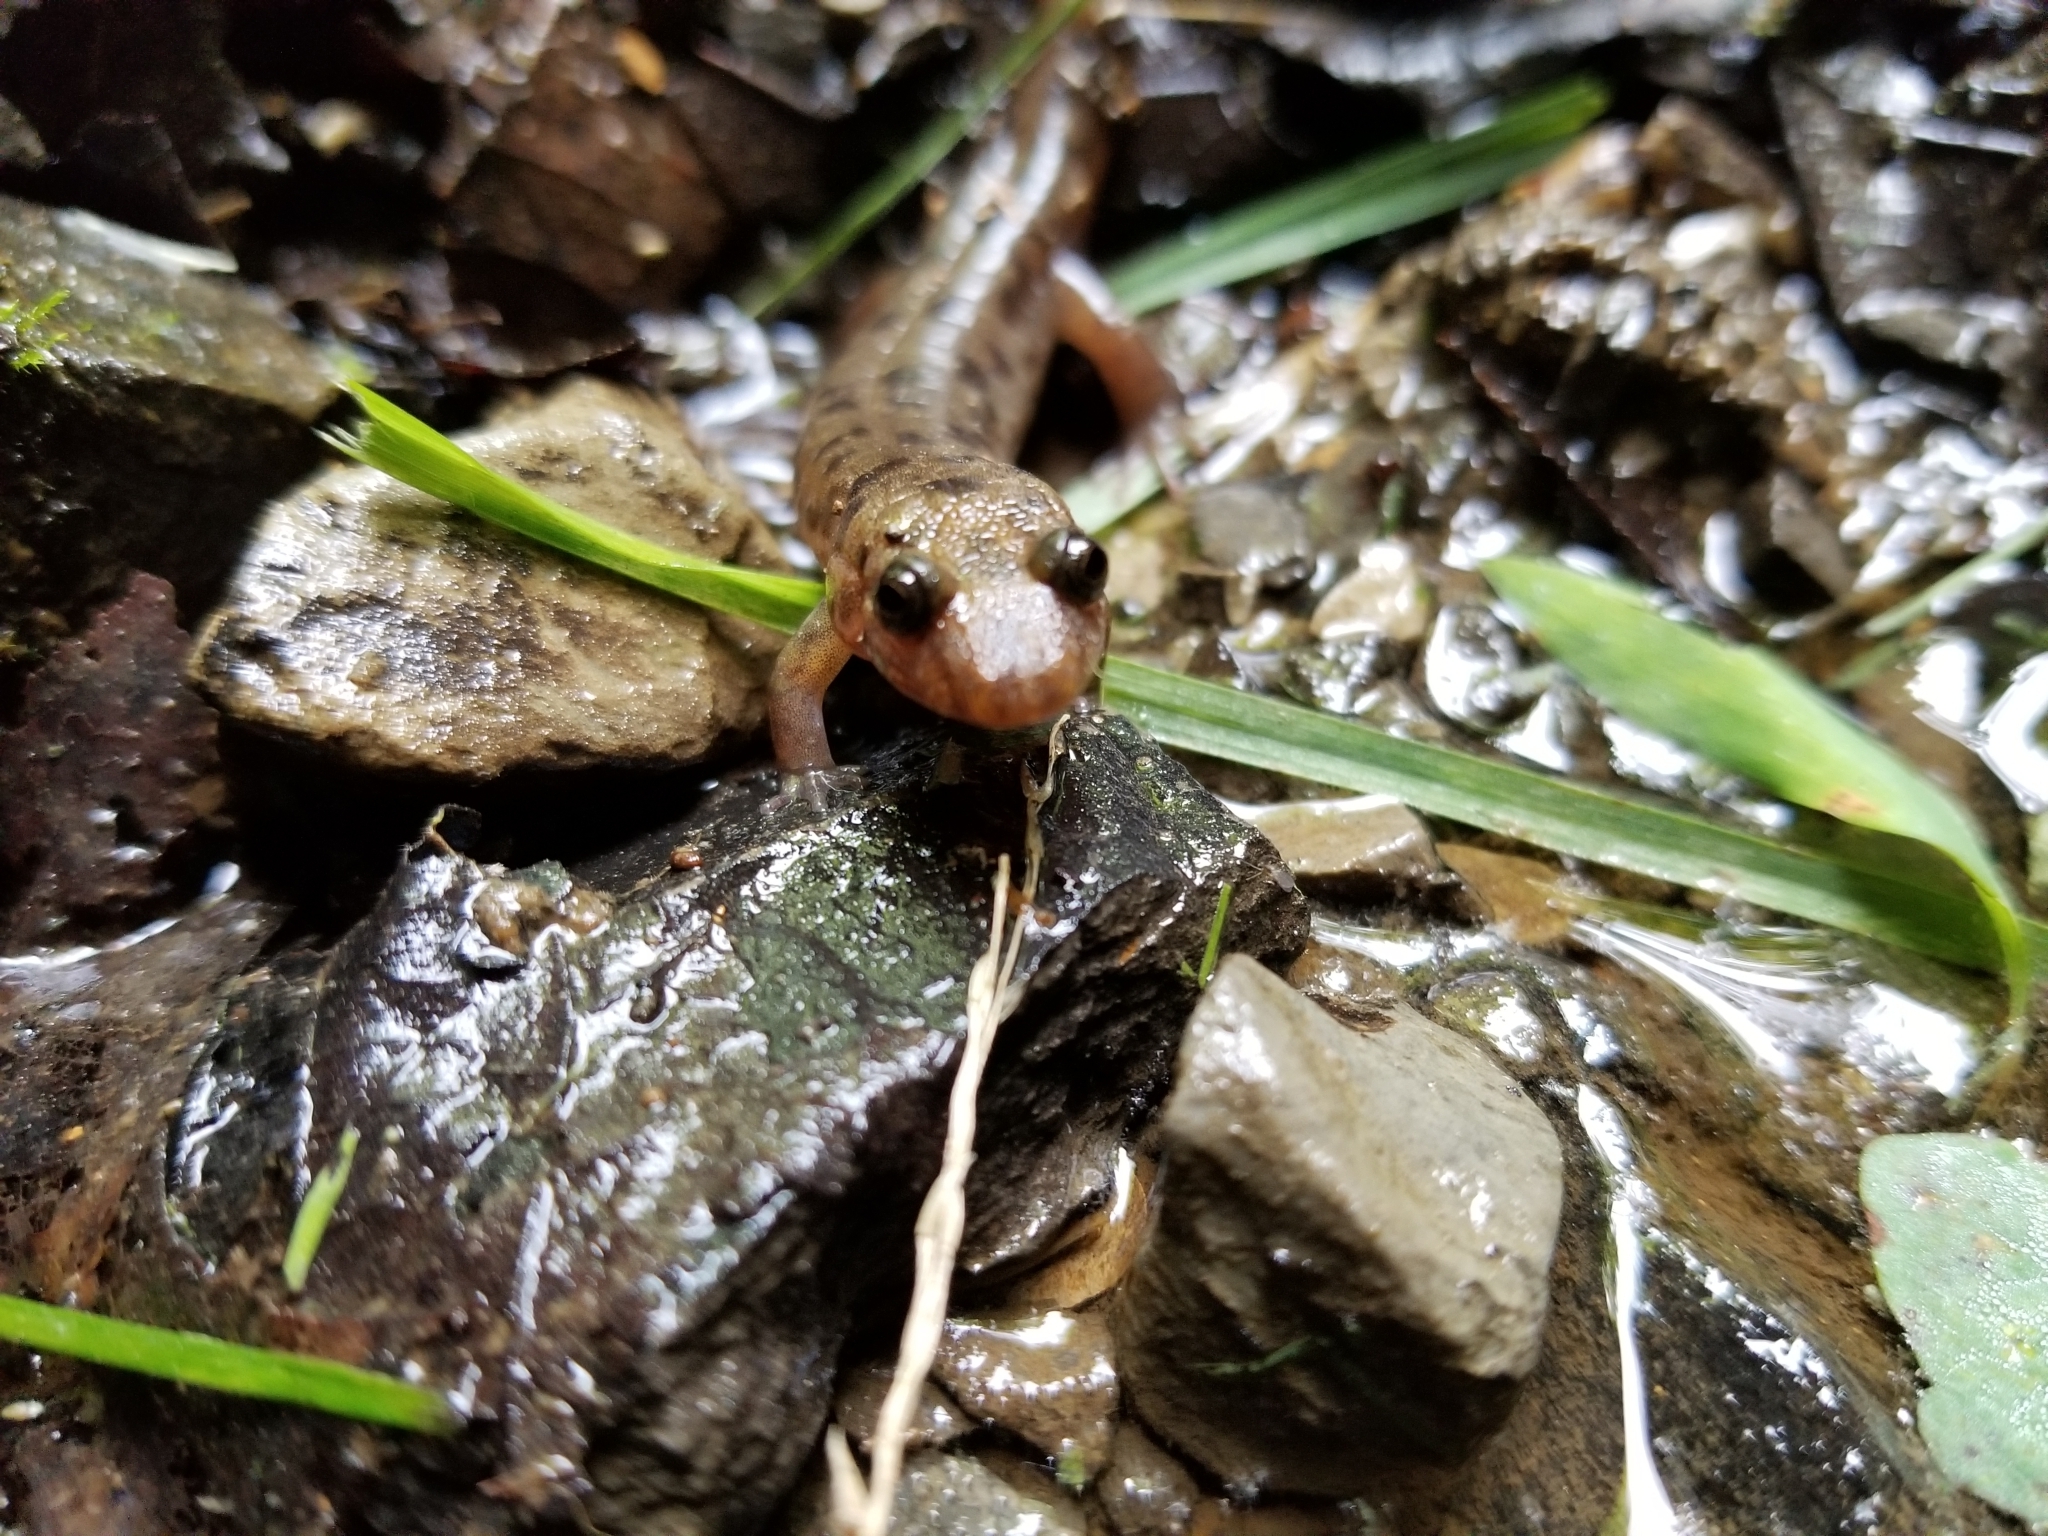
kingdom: Animalia
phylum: Chordata
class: Amphibia
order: Caudata
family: Plethodontidae
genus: Desmognathus
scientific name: Desmognathus monticola
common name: Seal salamander
